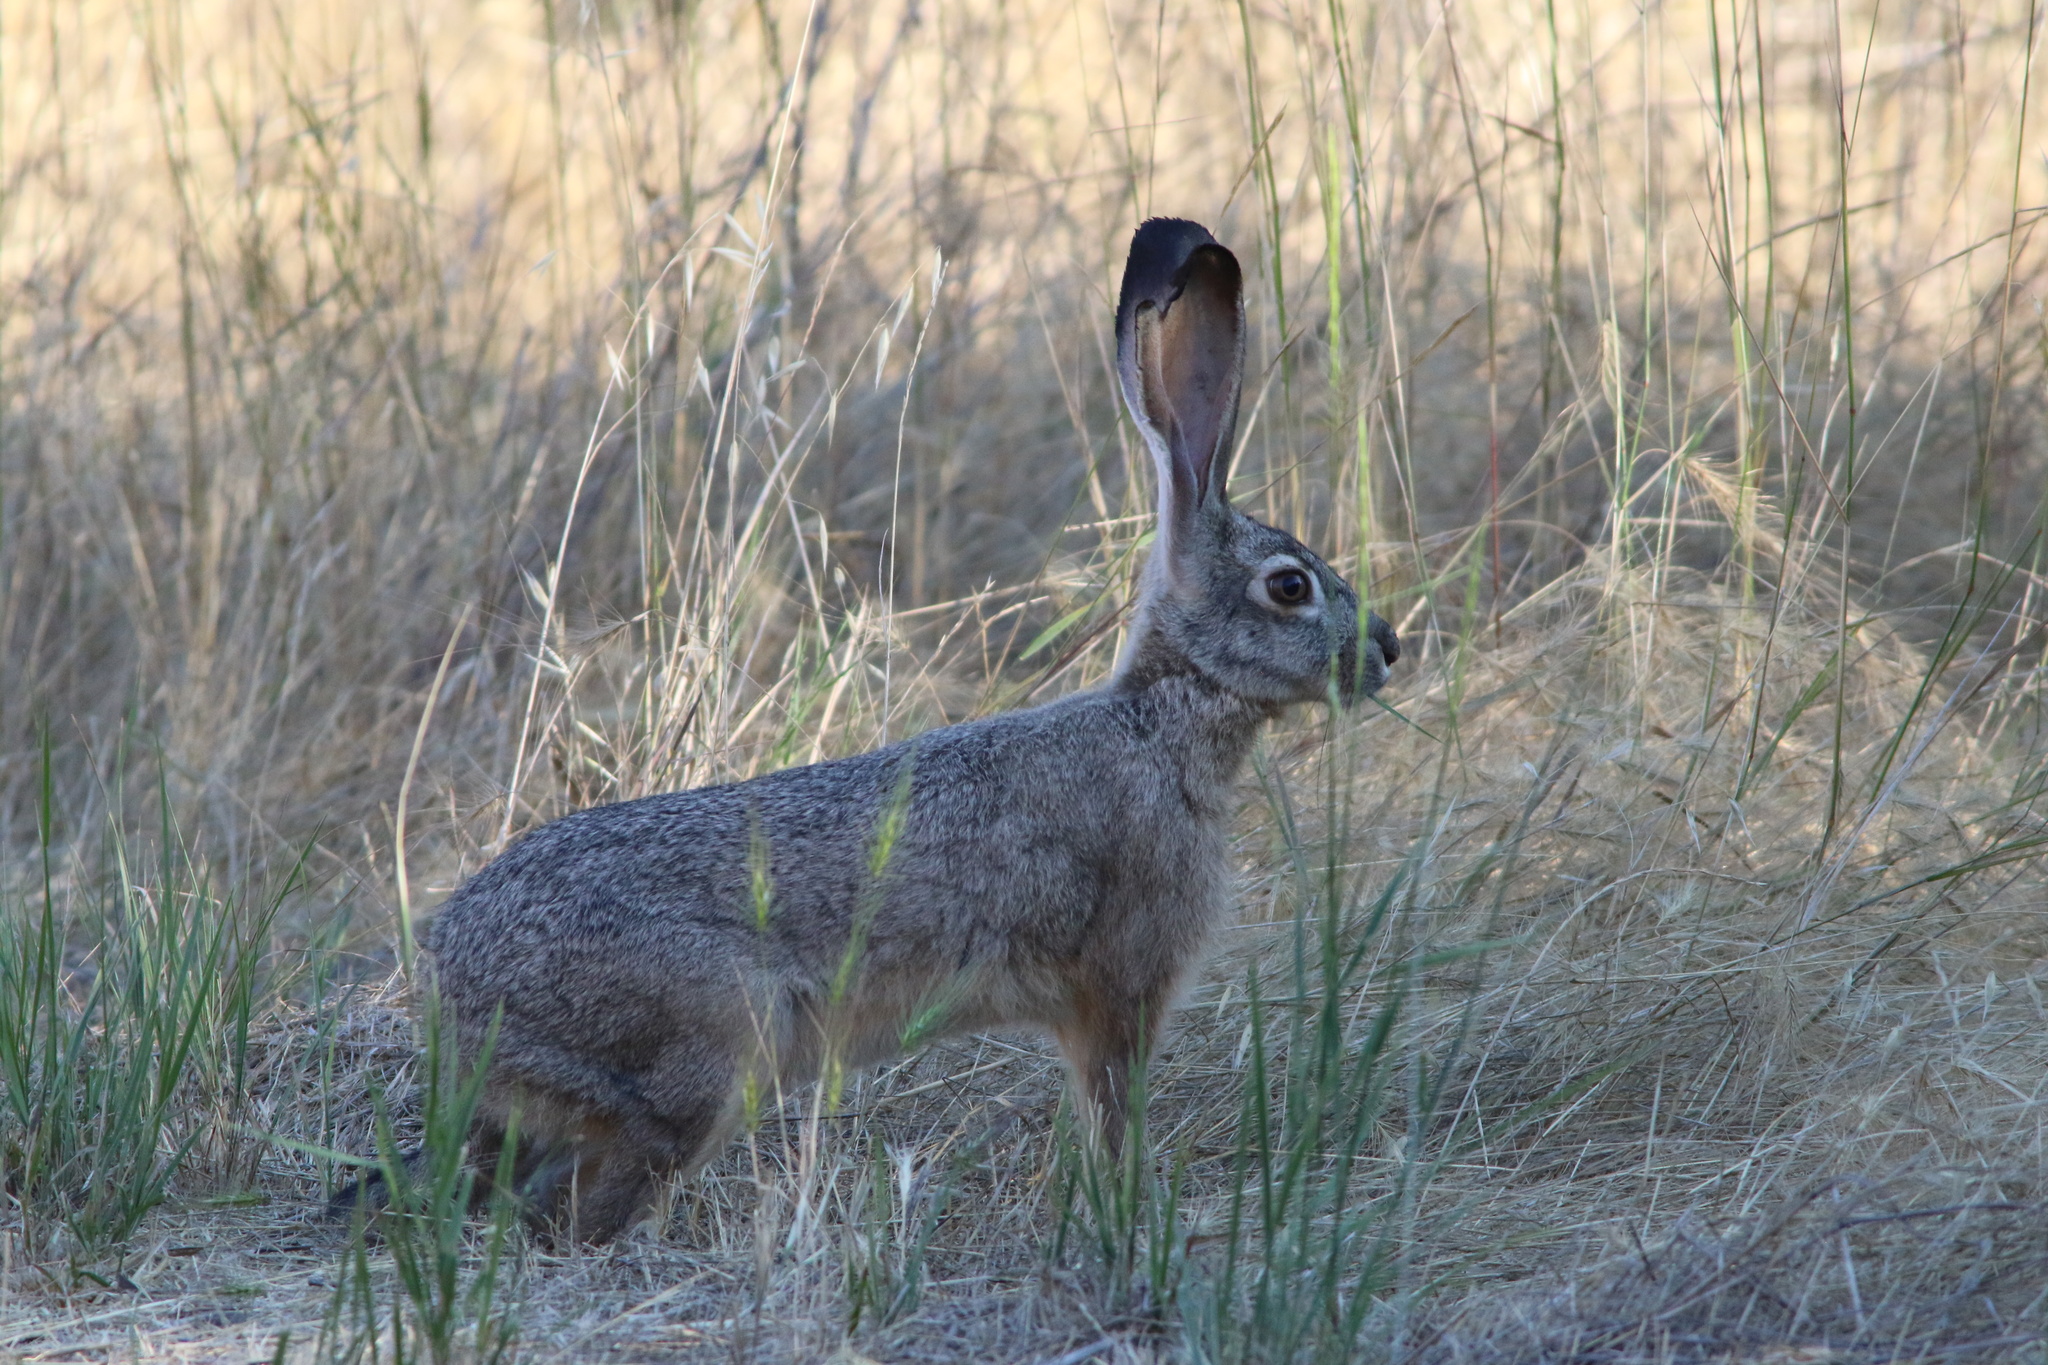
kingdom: Animalia
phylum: Chordata
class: Mammalia
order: Lagomorpha
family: Leporidae
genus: Lepus
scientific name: Lepus californicus
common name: Black-tailed jackrabbit
